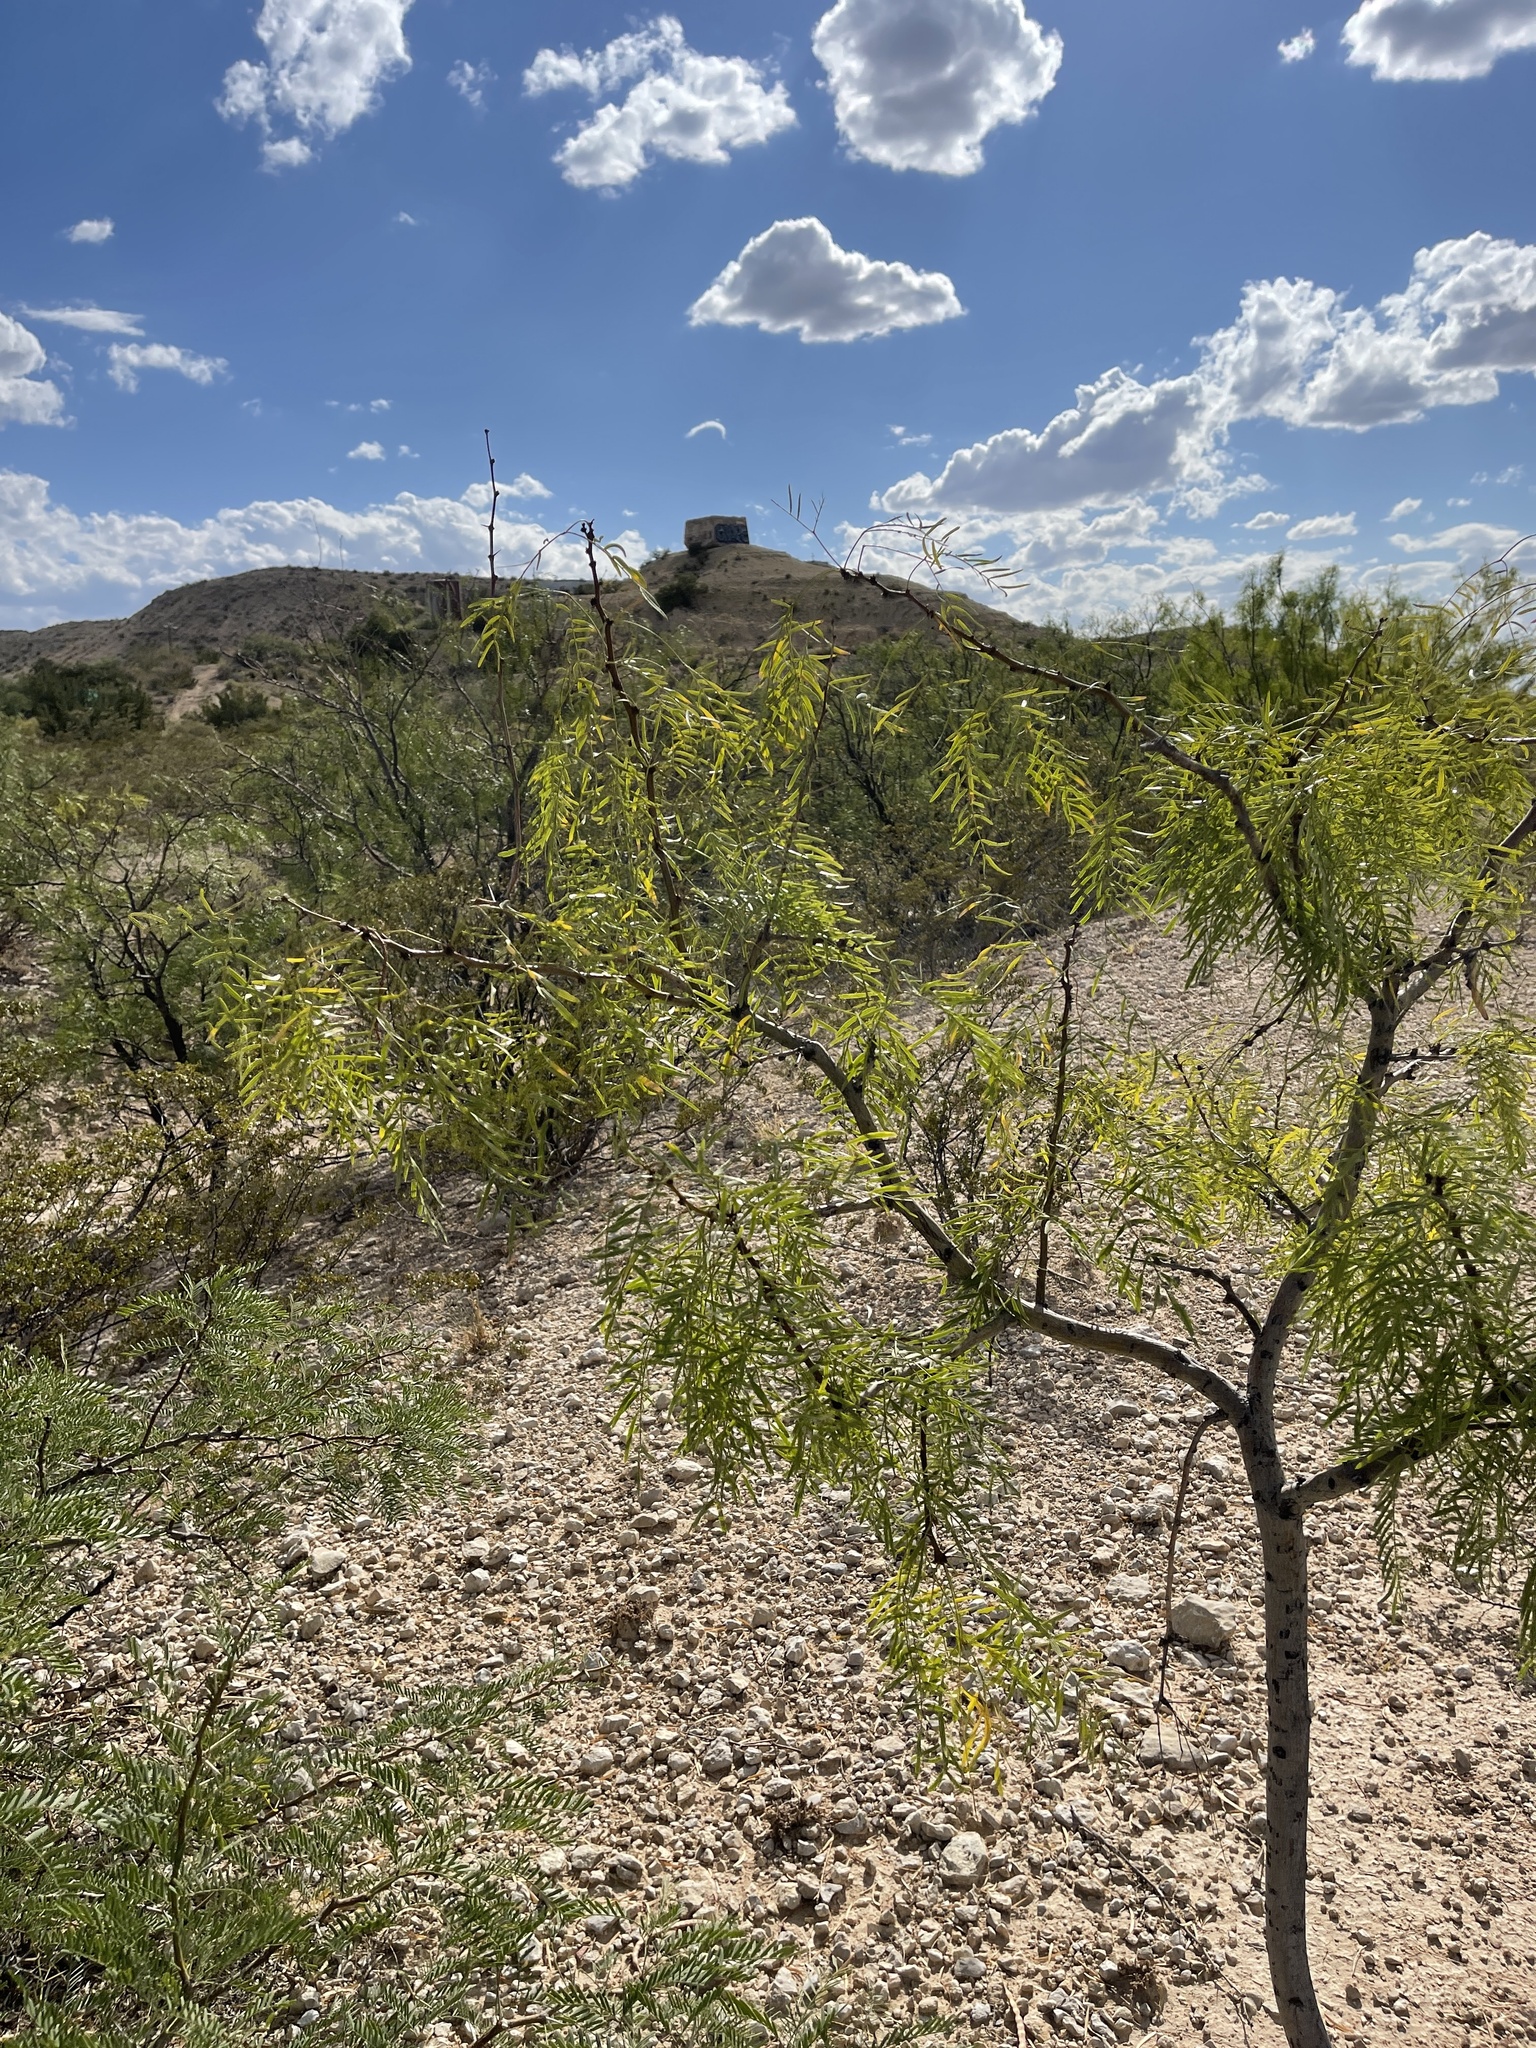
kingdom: Plantae
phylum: Tracheophyta
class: Magnoliopsida
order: Fabales
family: Fabaceae
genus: Prosopis
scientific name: Prosopis glandulosa
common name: Honey mesquite
